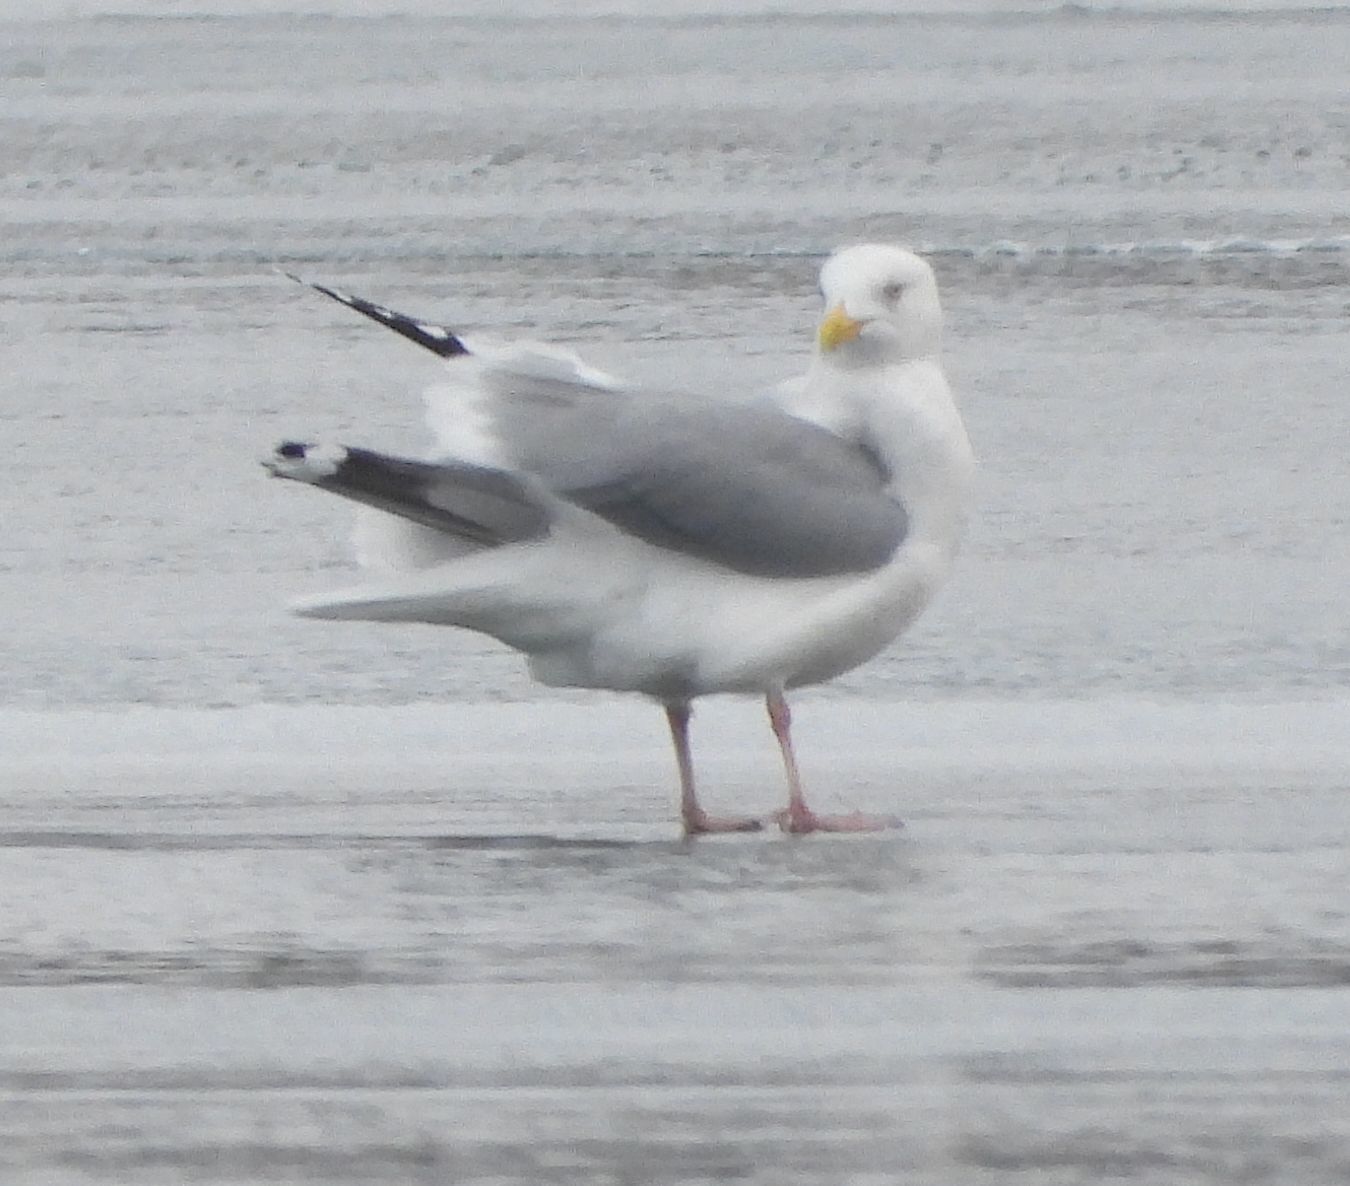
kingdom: Animalia
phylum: Chordata
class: Aves
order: Charadriiformes
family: Laridae
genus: Larus
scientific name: Larus argentatus
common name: Herring gull
